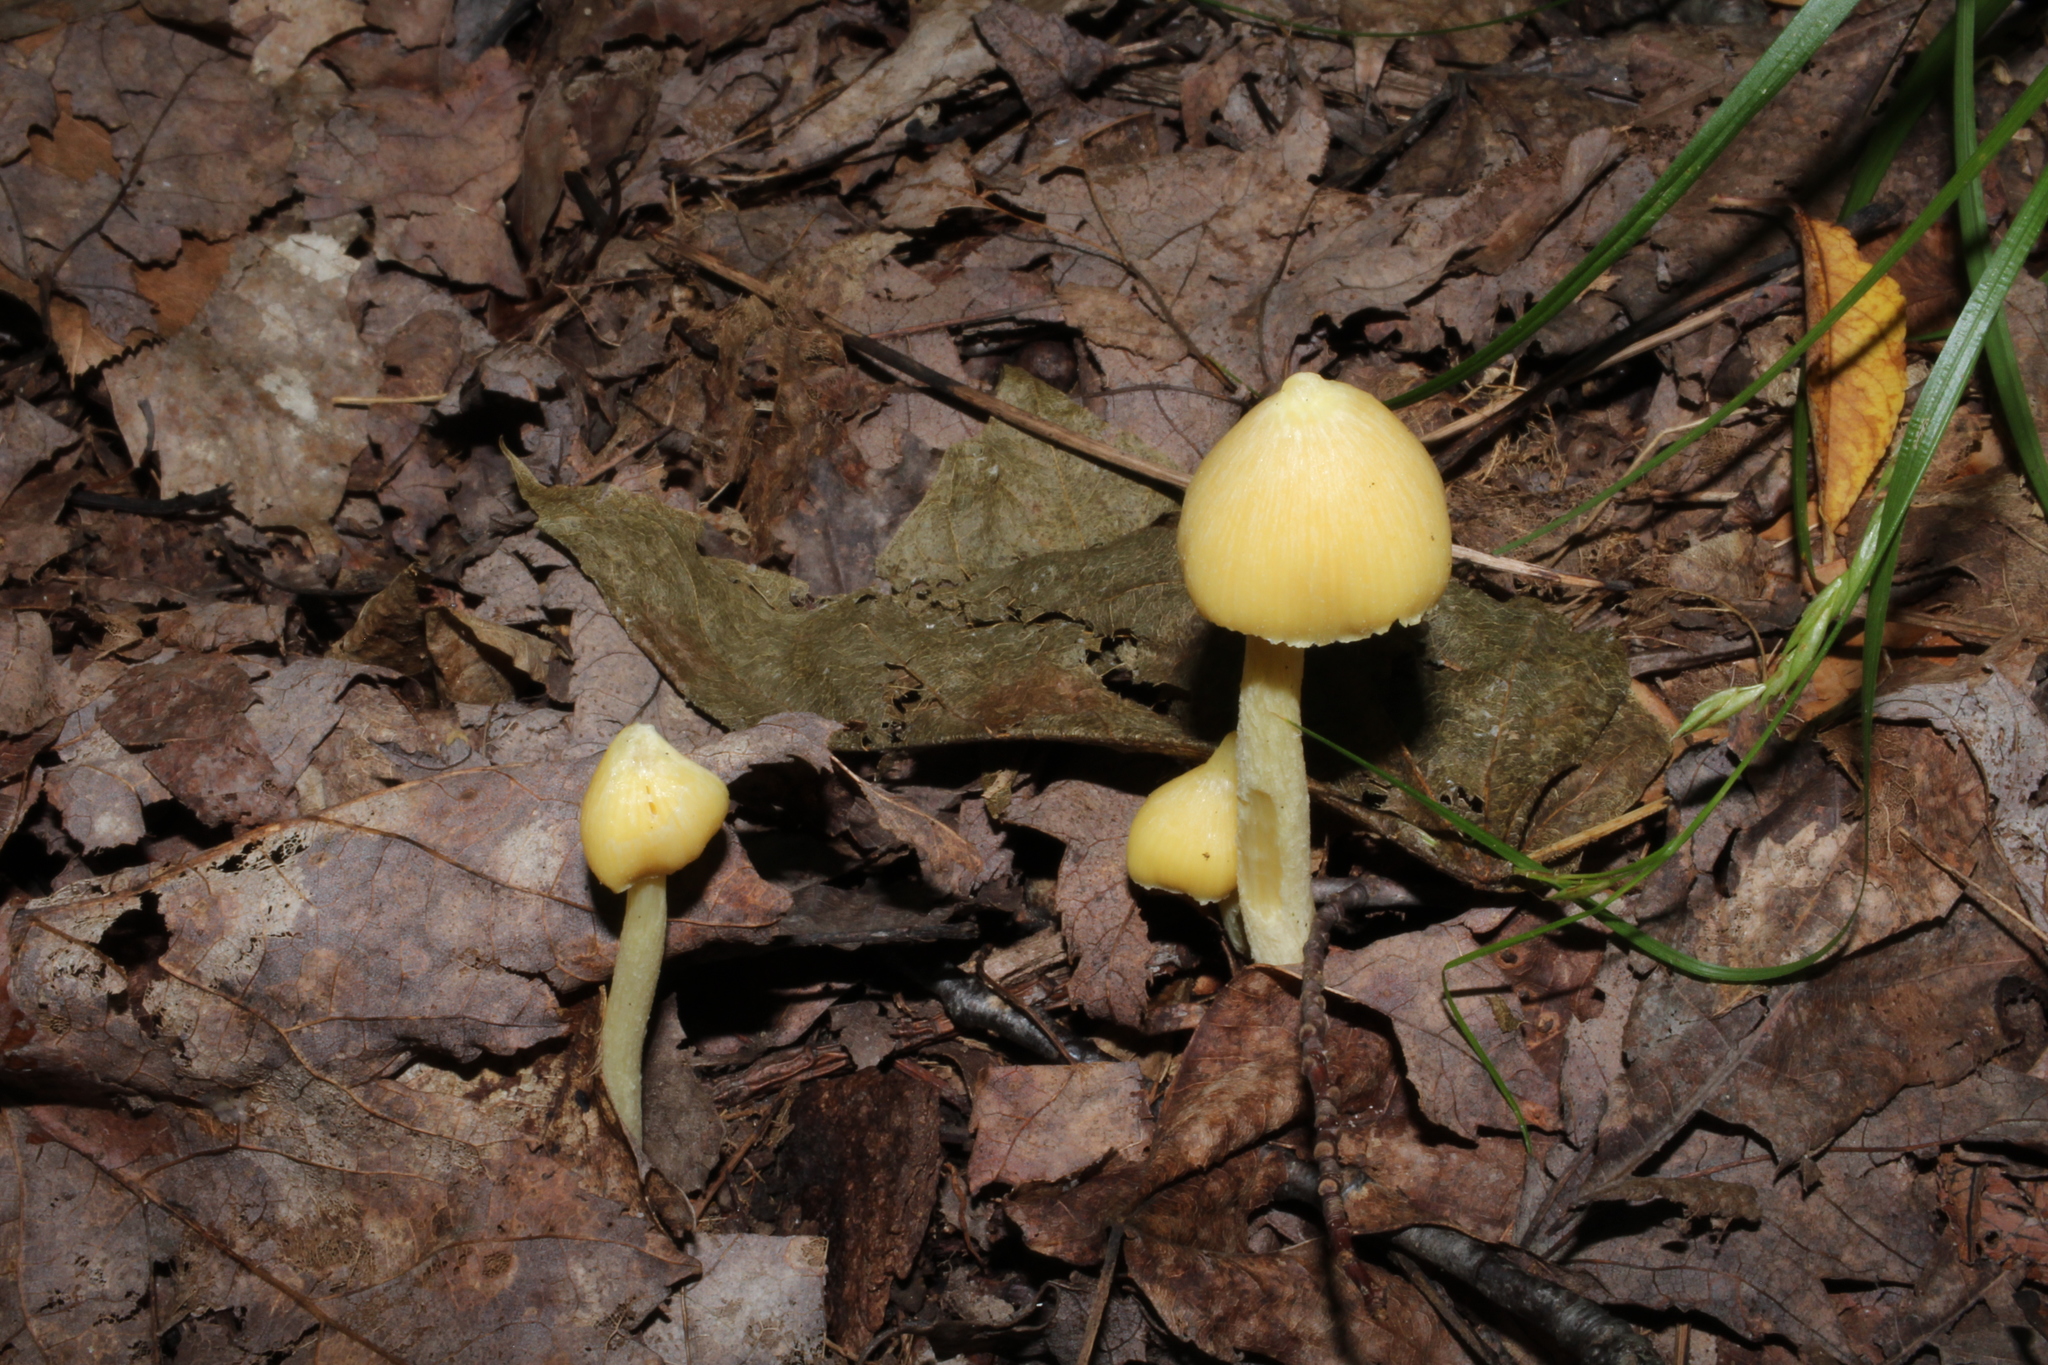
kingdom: Fungi
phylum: Basidiomycota
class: Agaricomycetes
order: Agaricales
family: Entolomataceae
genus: Entoloma
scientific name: Entoloma murrayi
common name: Yellow unicorn entoloma
